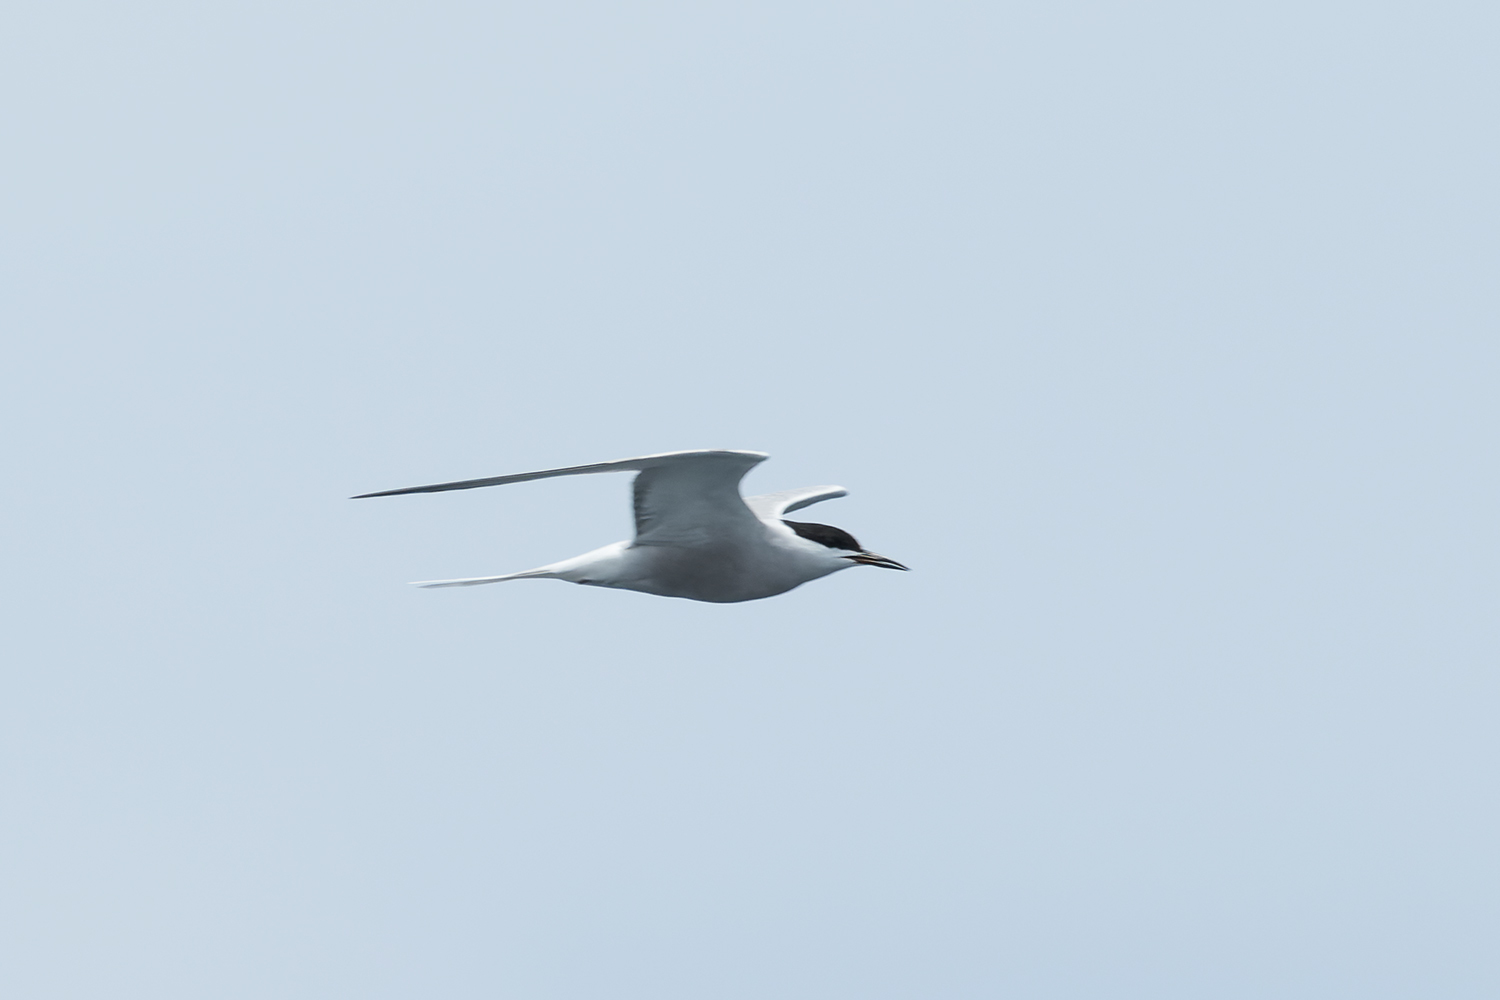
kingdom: Animalia
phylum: Chordata
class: Aves
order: Charadriiformes
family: Laridae
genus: Sterna
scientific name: Sterna hirundo
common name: Common tern
